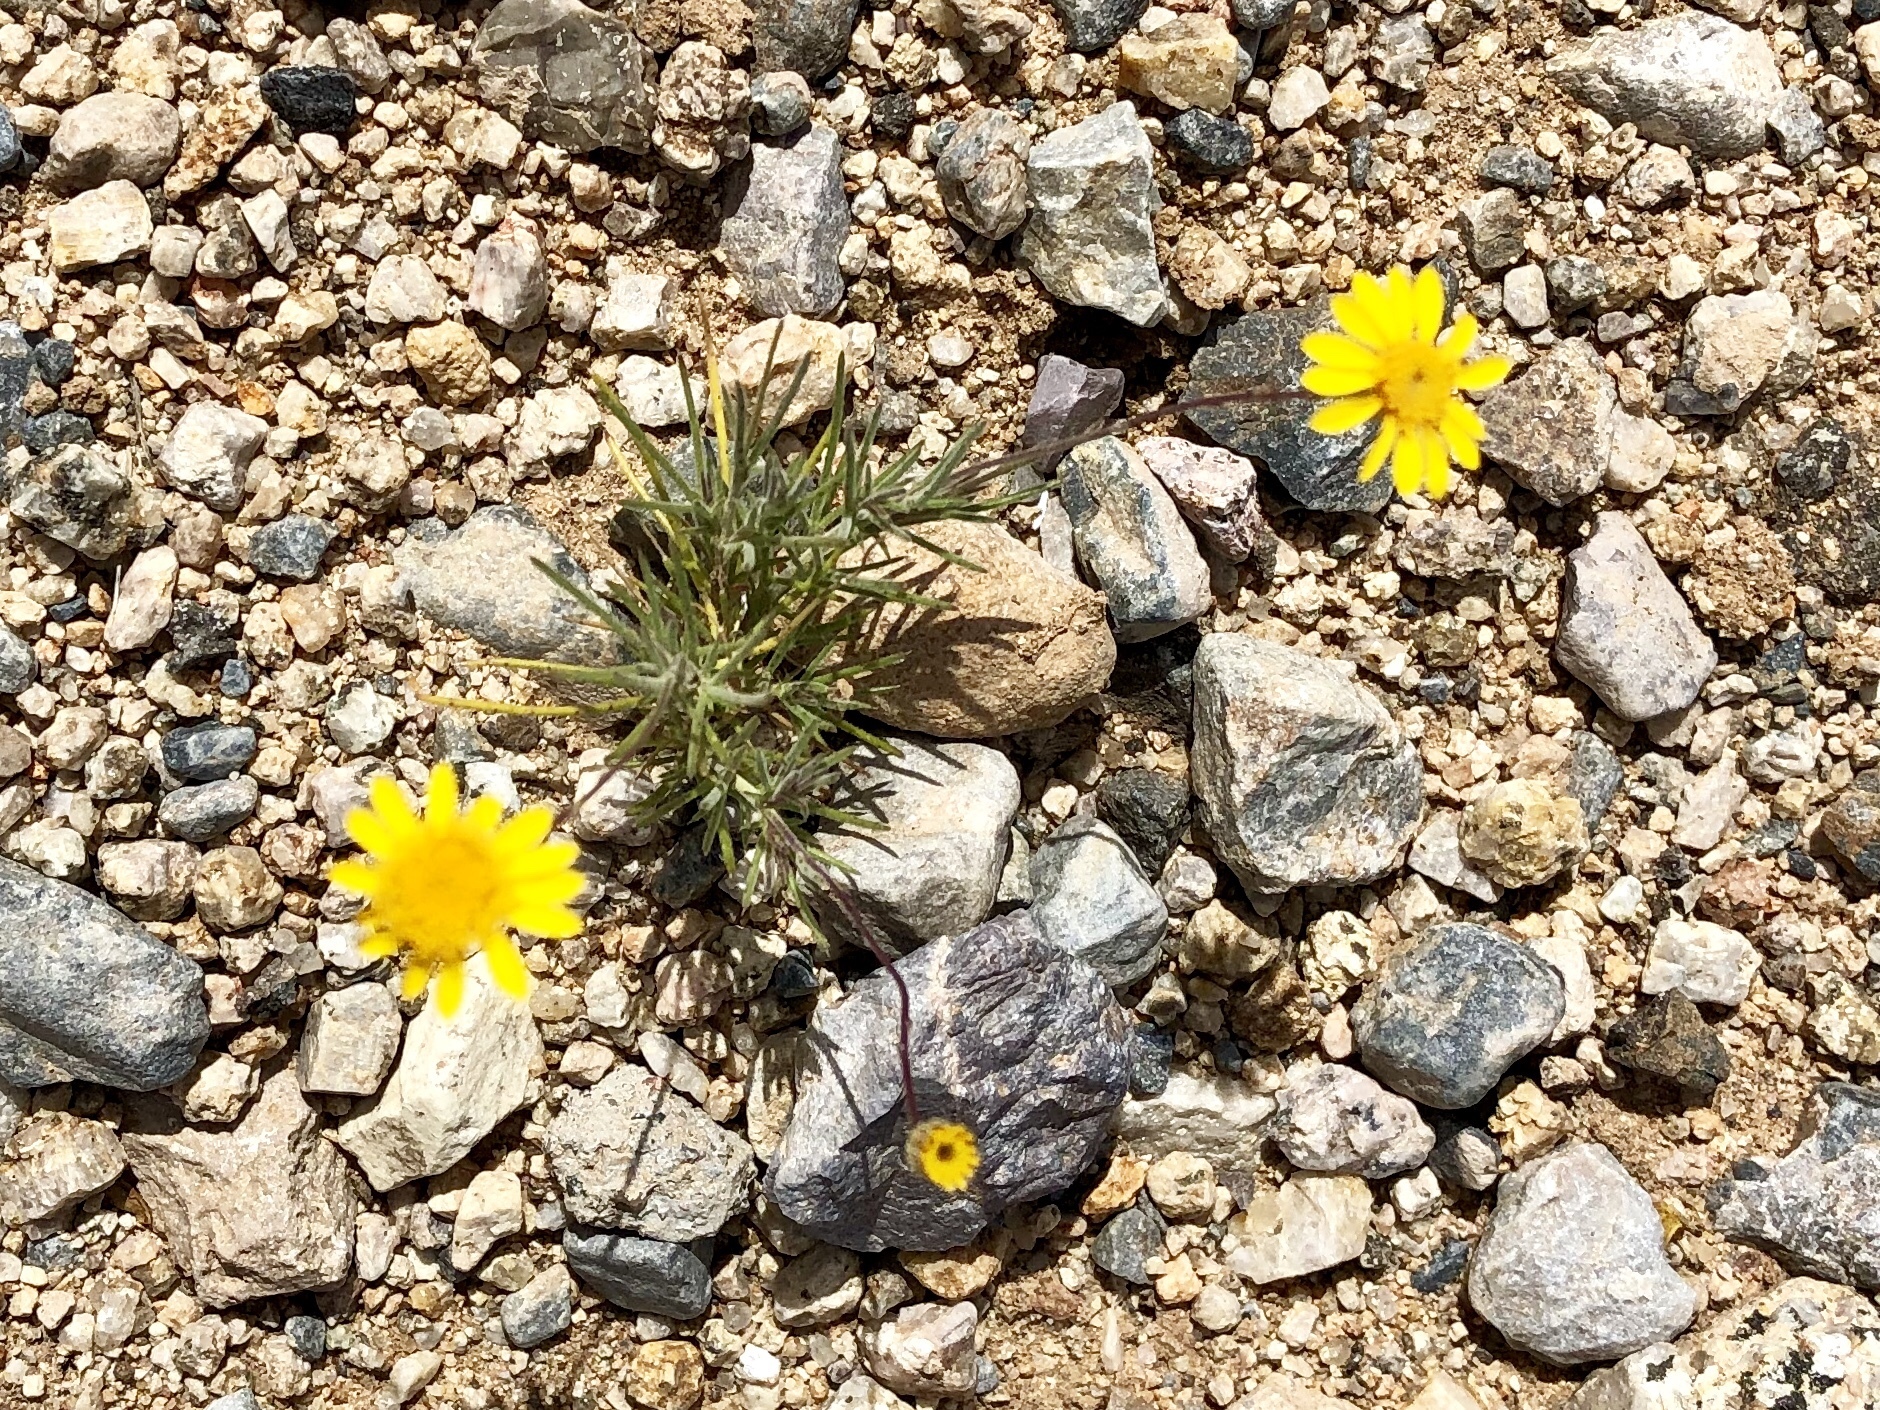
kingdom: Plantae
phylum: Tracheophyta
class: Magnoliopsida
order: Asterales
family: Asteraceae
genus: Thymophylla
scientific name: Thymophylla pentachaeta
